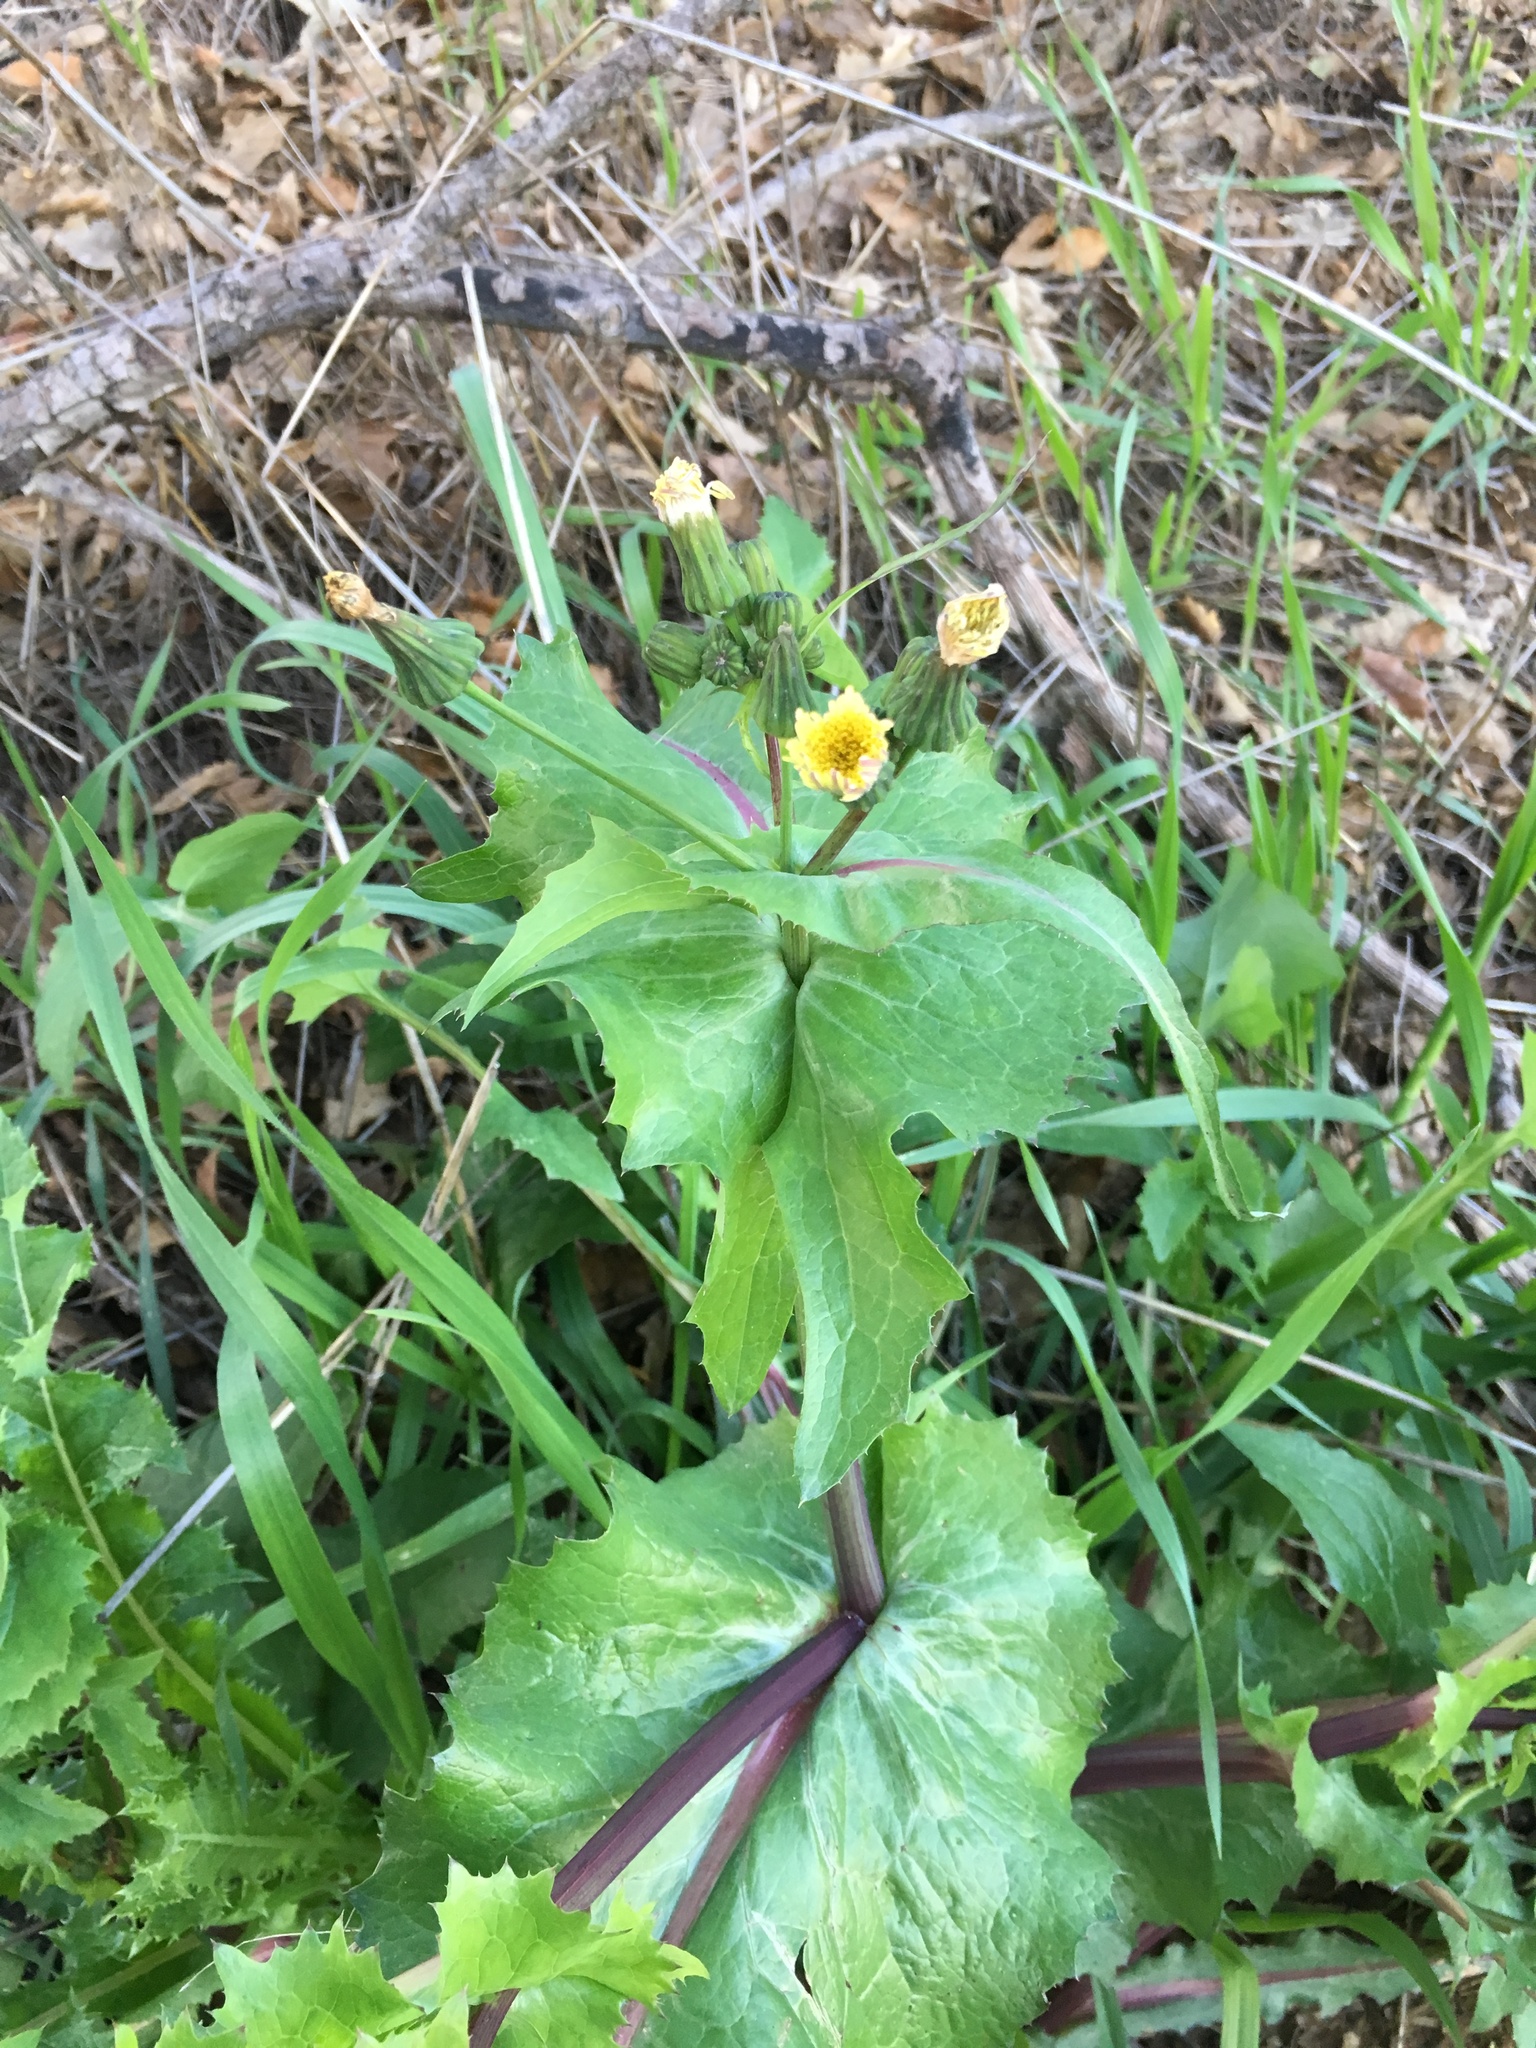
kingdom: Plantae
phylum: Tracheophyta
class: Magnoliopsida
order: Asterales
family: Asteraceae
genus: Sonchus
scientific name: Sonchus oleraceus
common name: Common sowthistle
